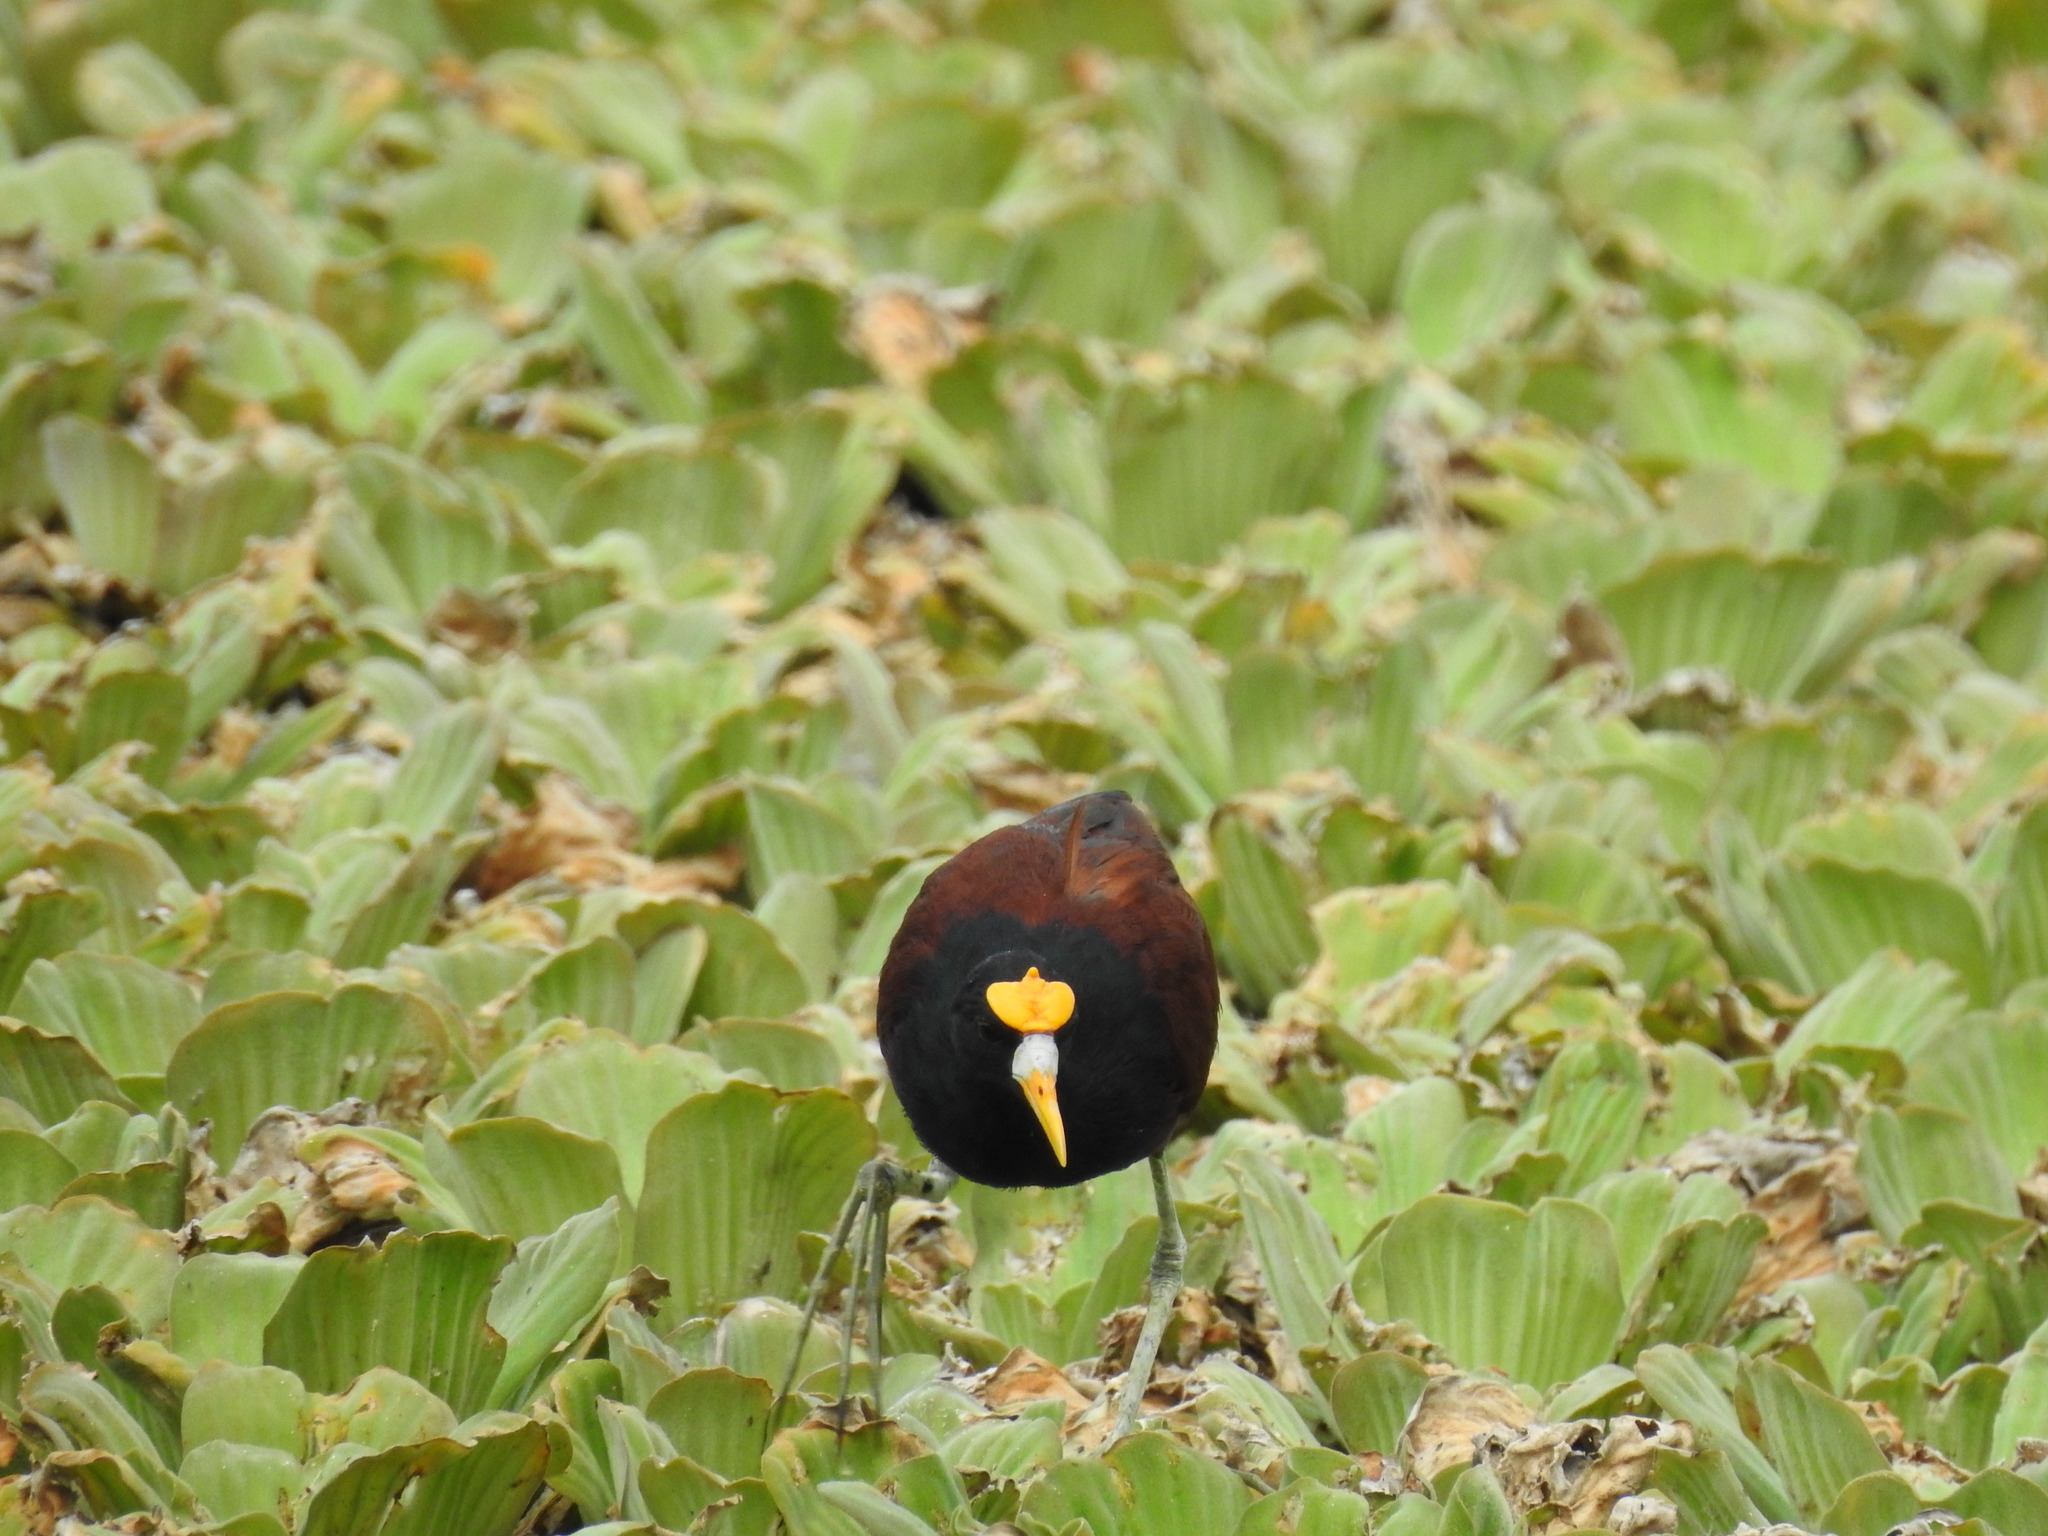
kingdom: Animalia
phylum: Chordata
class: Aves
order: Charadriiformes
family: Jacanidae
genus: Jacana
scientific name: Jacana spinosa
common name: Northern jacana
